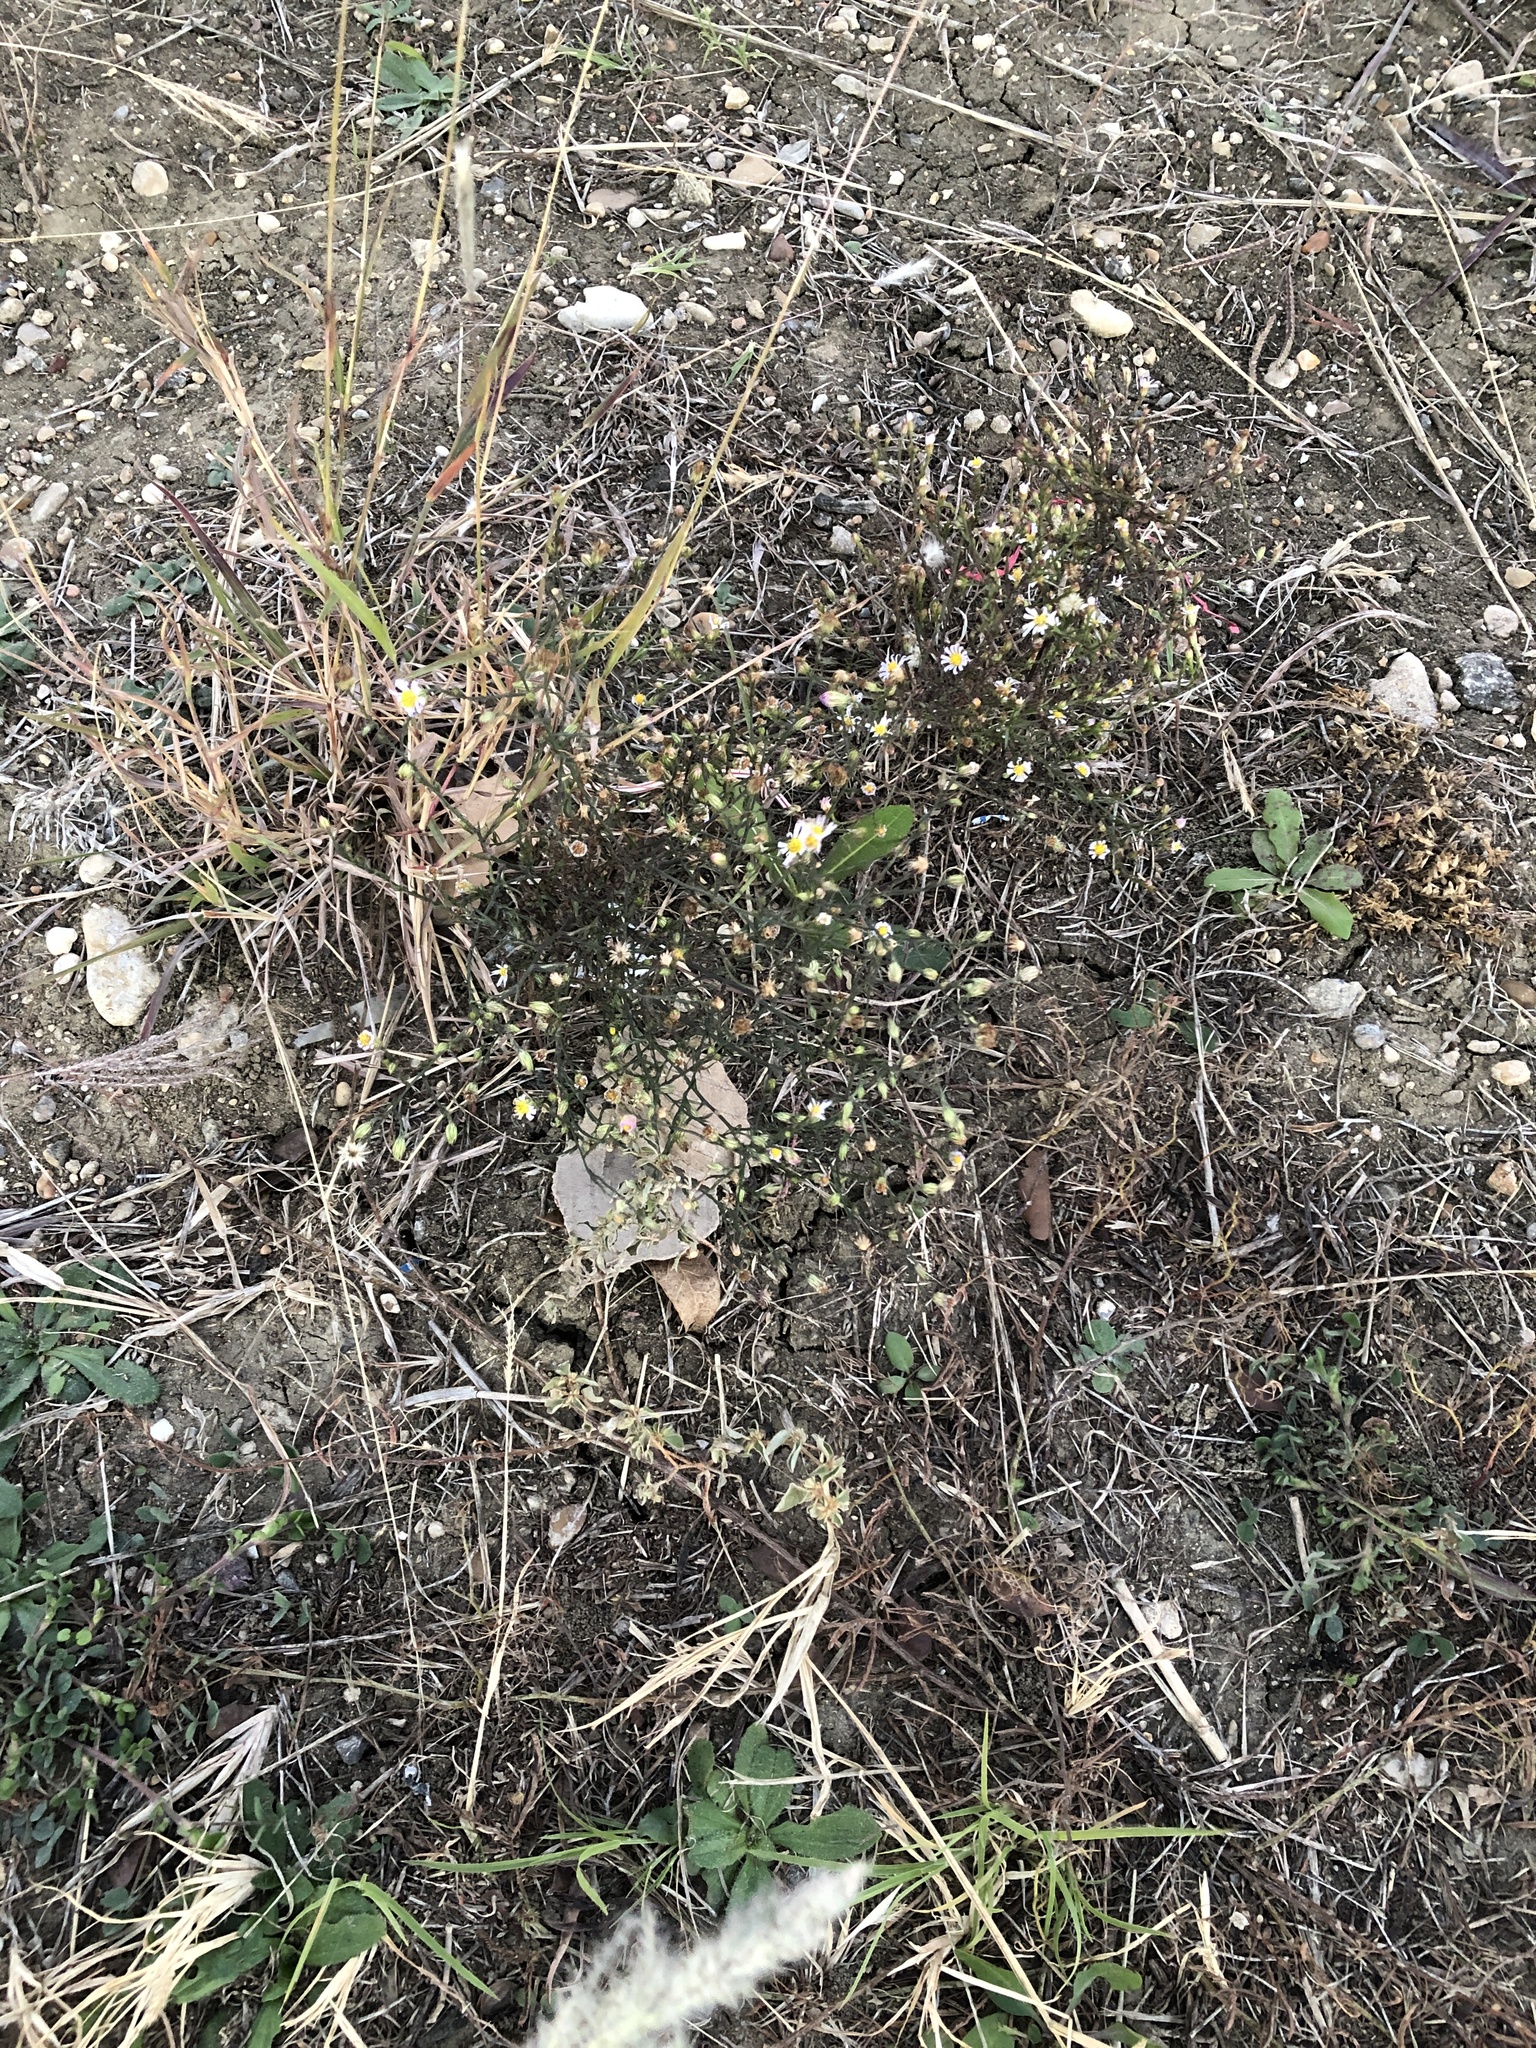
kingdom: Plantae
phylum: Tracheophyta
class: Magnoliopsida
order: Asterales
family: Asteraceae
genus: Symphyotrichum
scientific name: Symphyotrichum divaricatum
